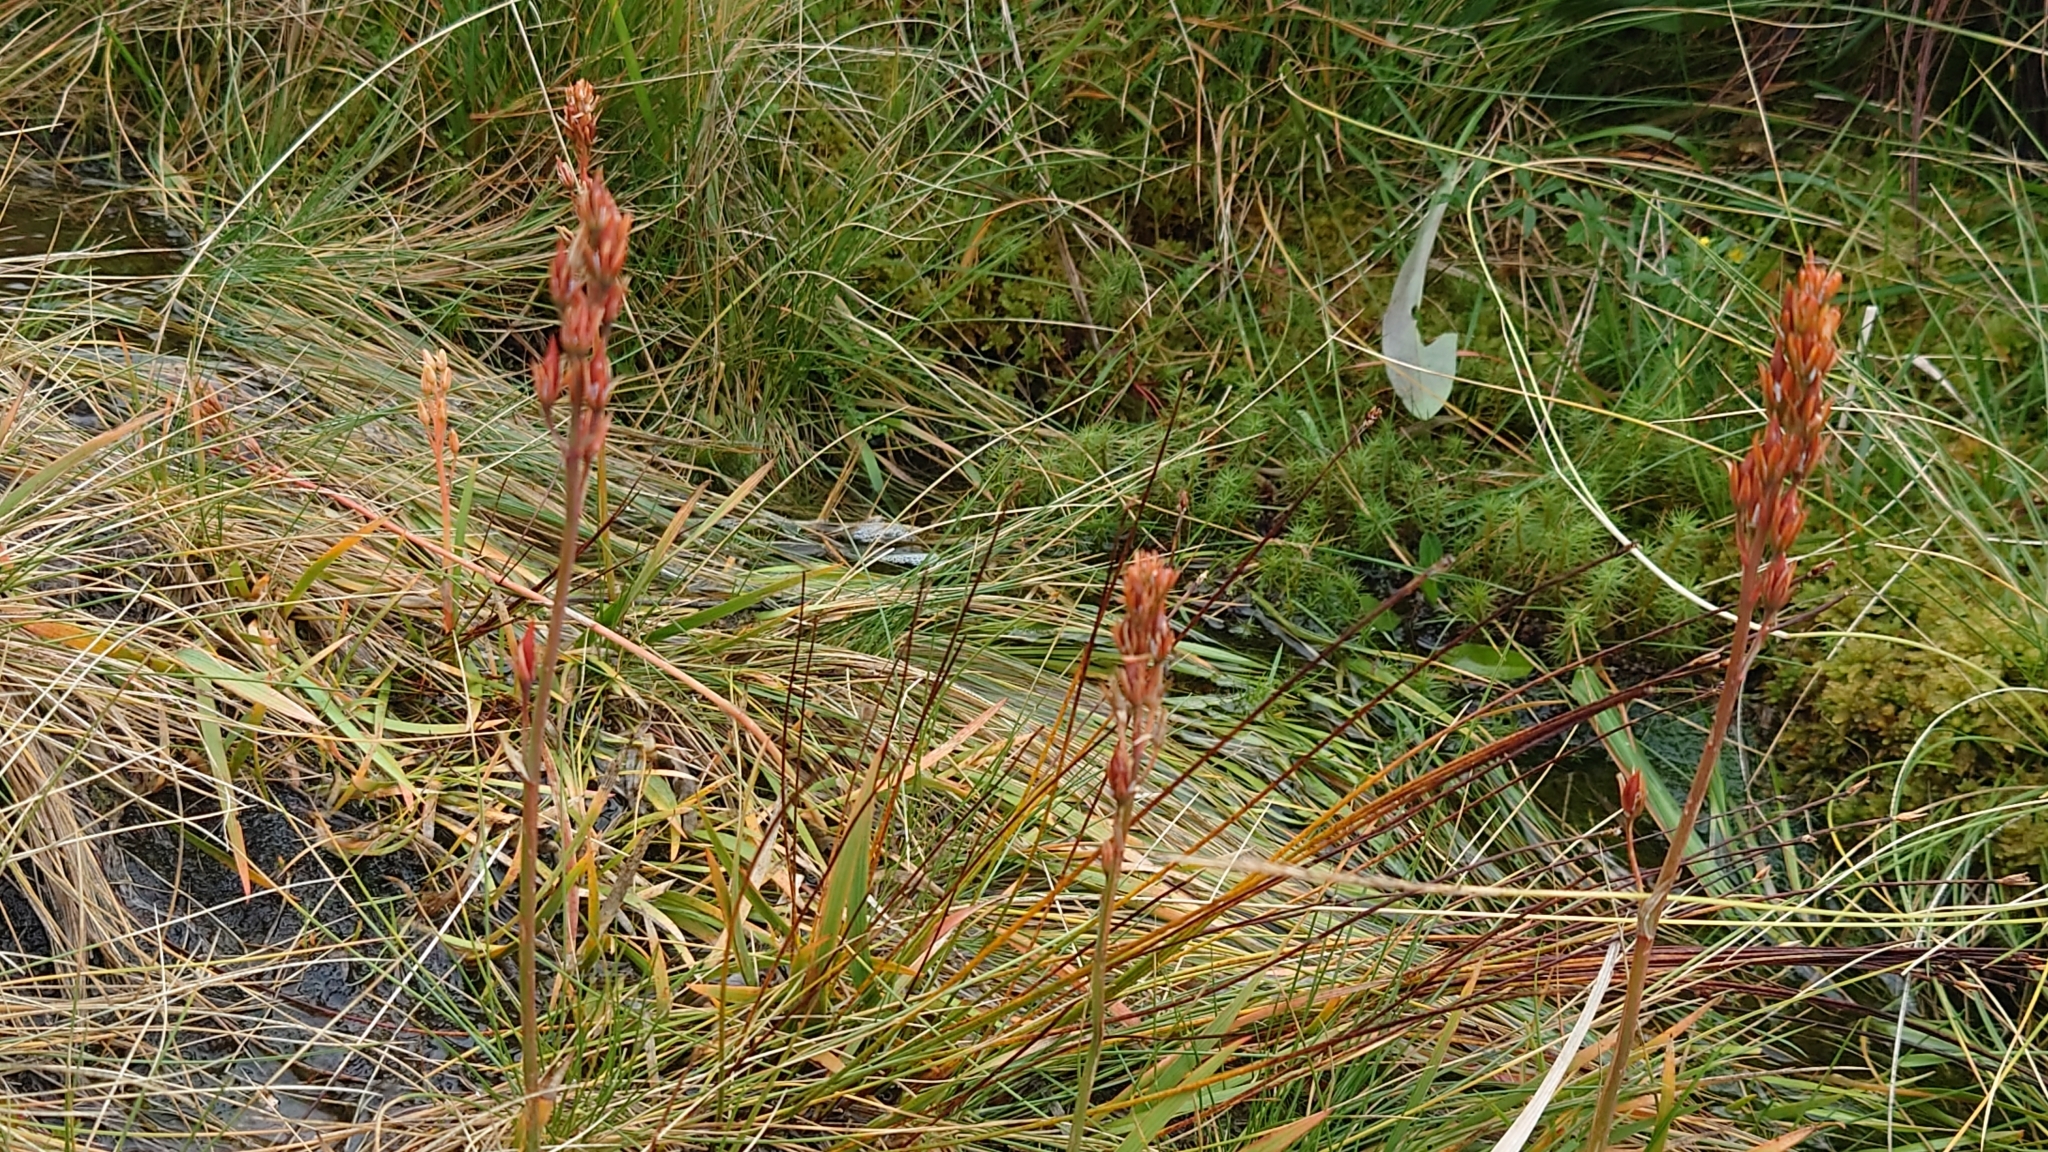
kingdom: Plantae
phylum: Tracheophyta
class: Liliopsida
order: Dioscoreales
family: Nartheciaceae
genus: Narthecium
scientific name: Narthecium ossifragum
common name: Bog asphodel
